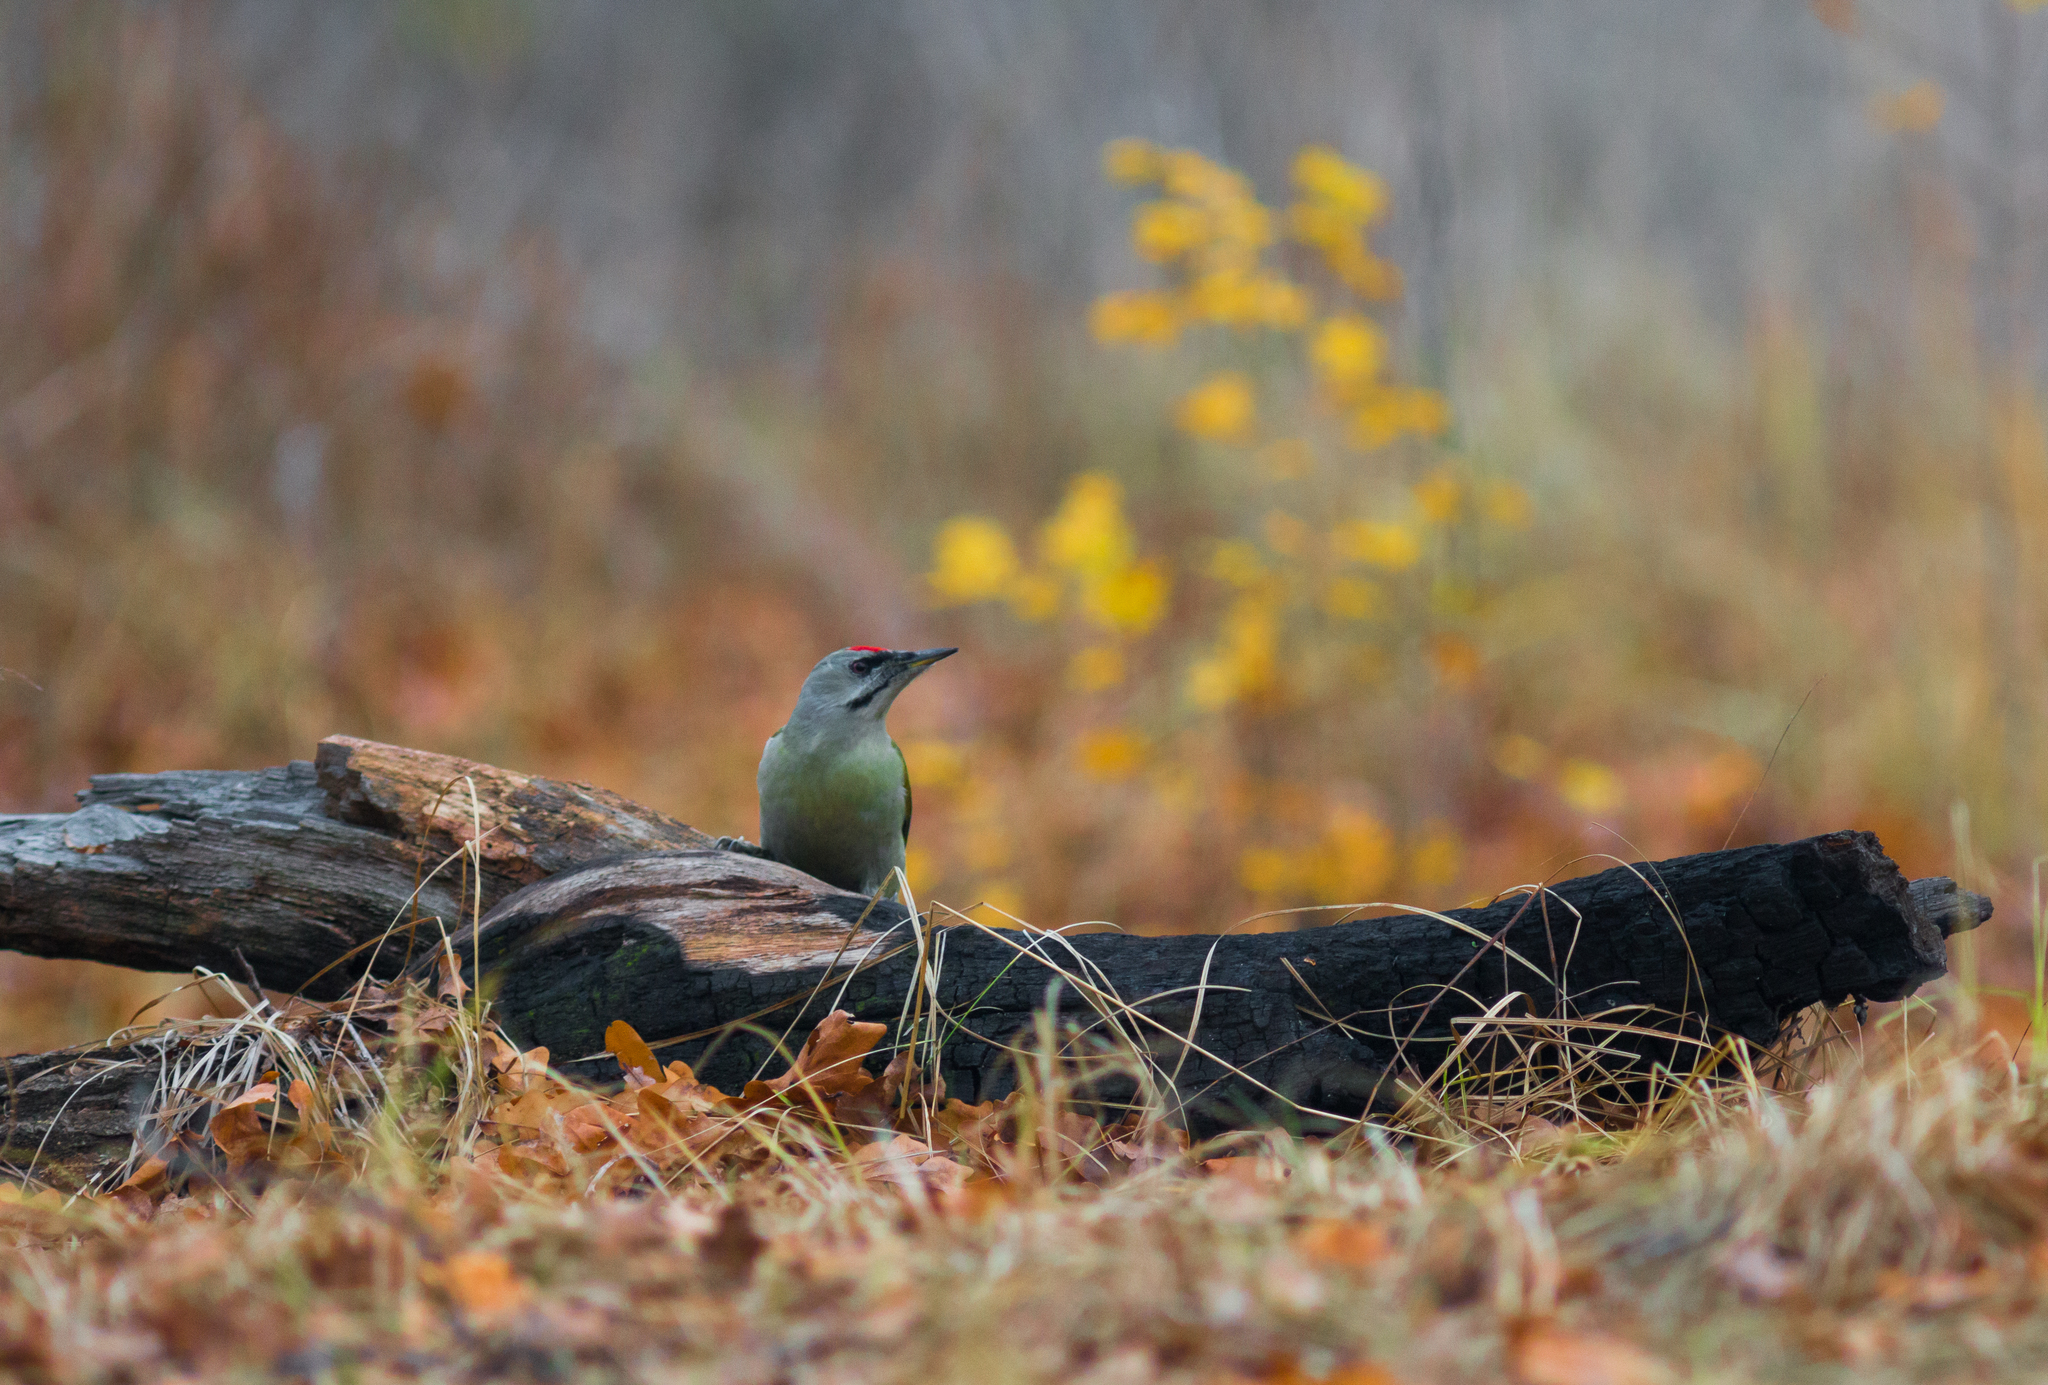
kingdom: Animalia
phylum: Chordata
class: Aves
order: Piciformes
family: Picidae
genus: Picus
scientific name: Picus canus
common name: Grey-headed woodpecker
